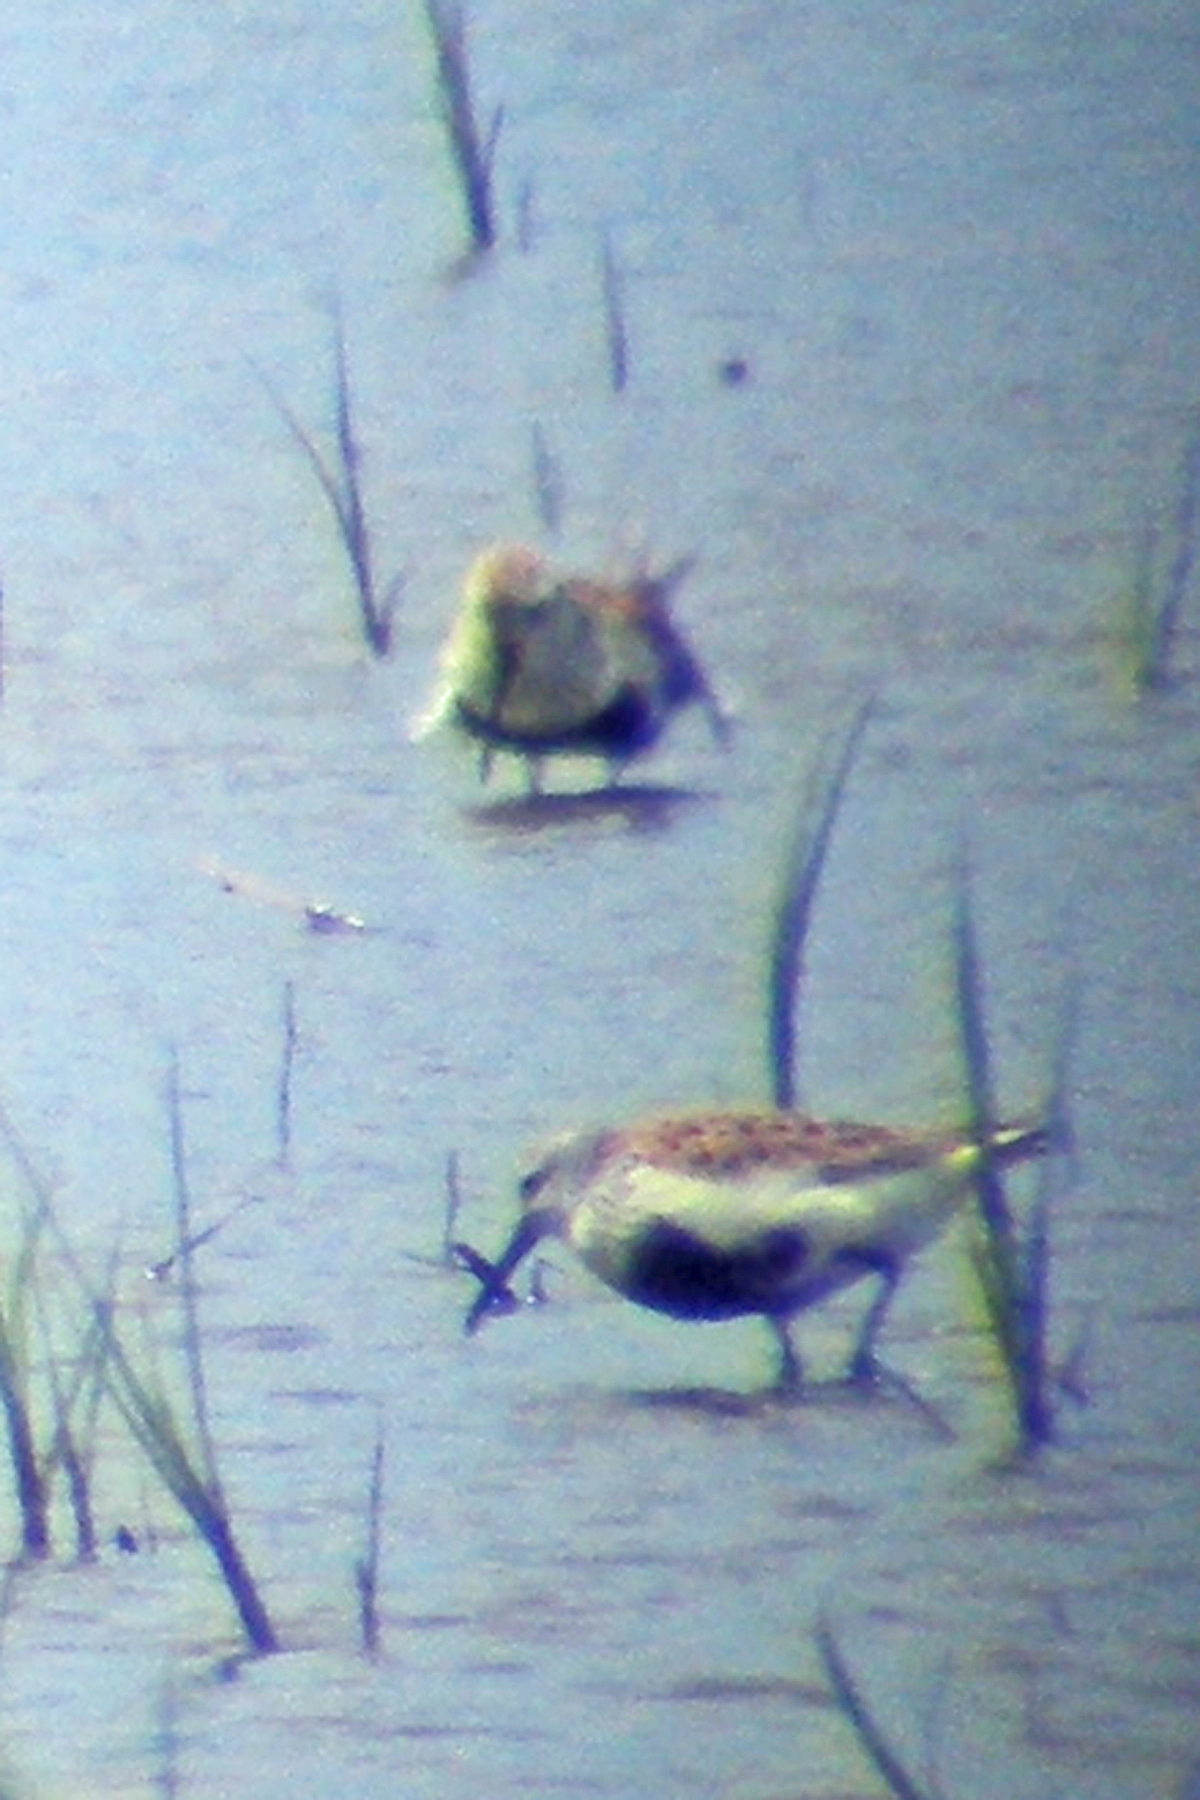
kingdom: Animalia
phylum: Chordata
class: Aves
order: Charadriiformes
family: Scolopacidae
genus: Calidris
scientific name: Calidris alpina
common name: Dunlin
